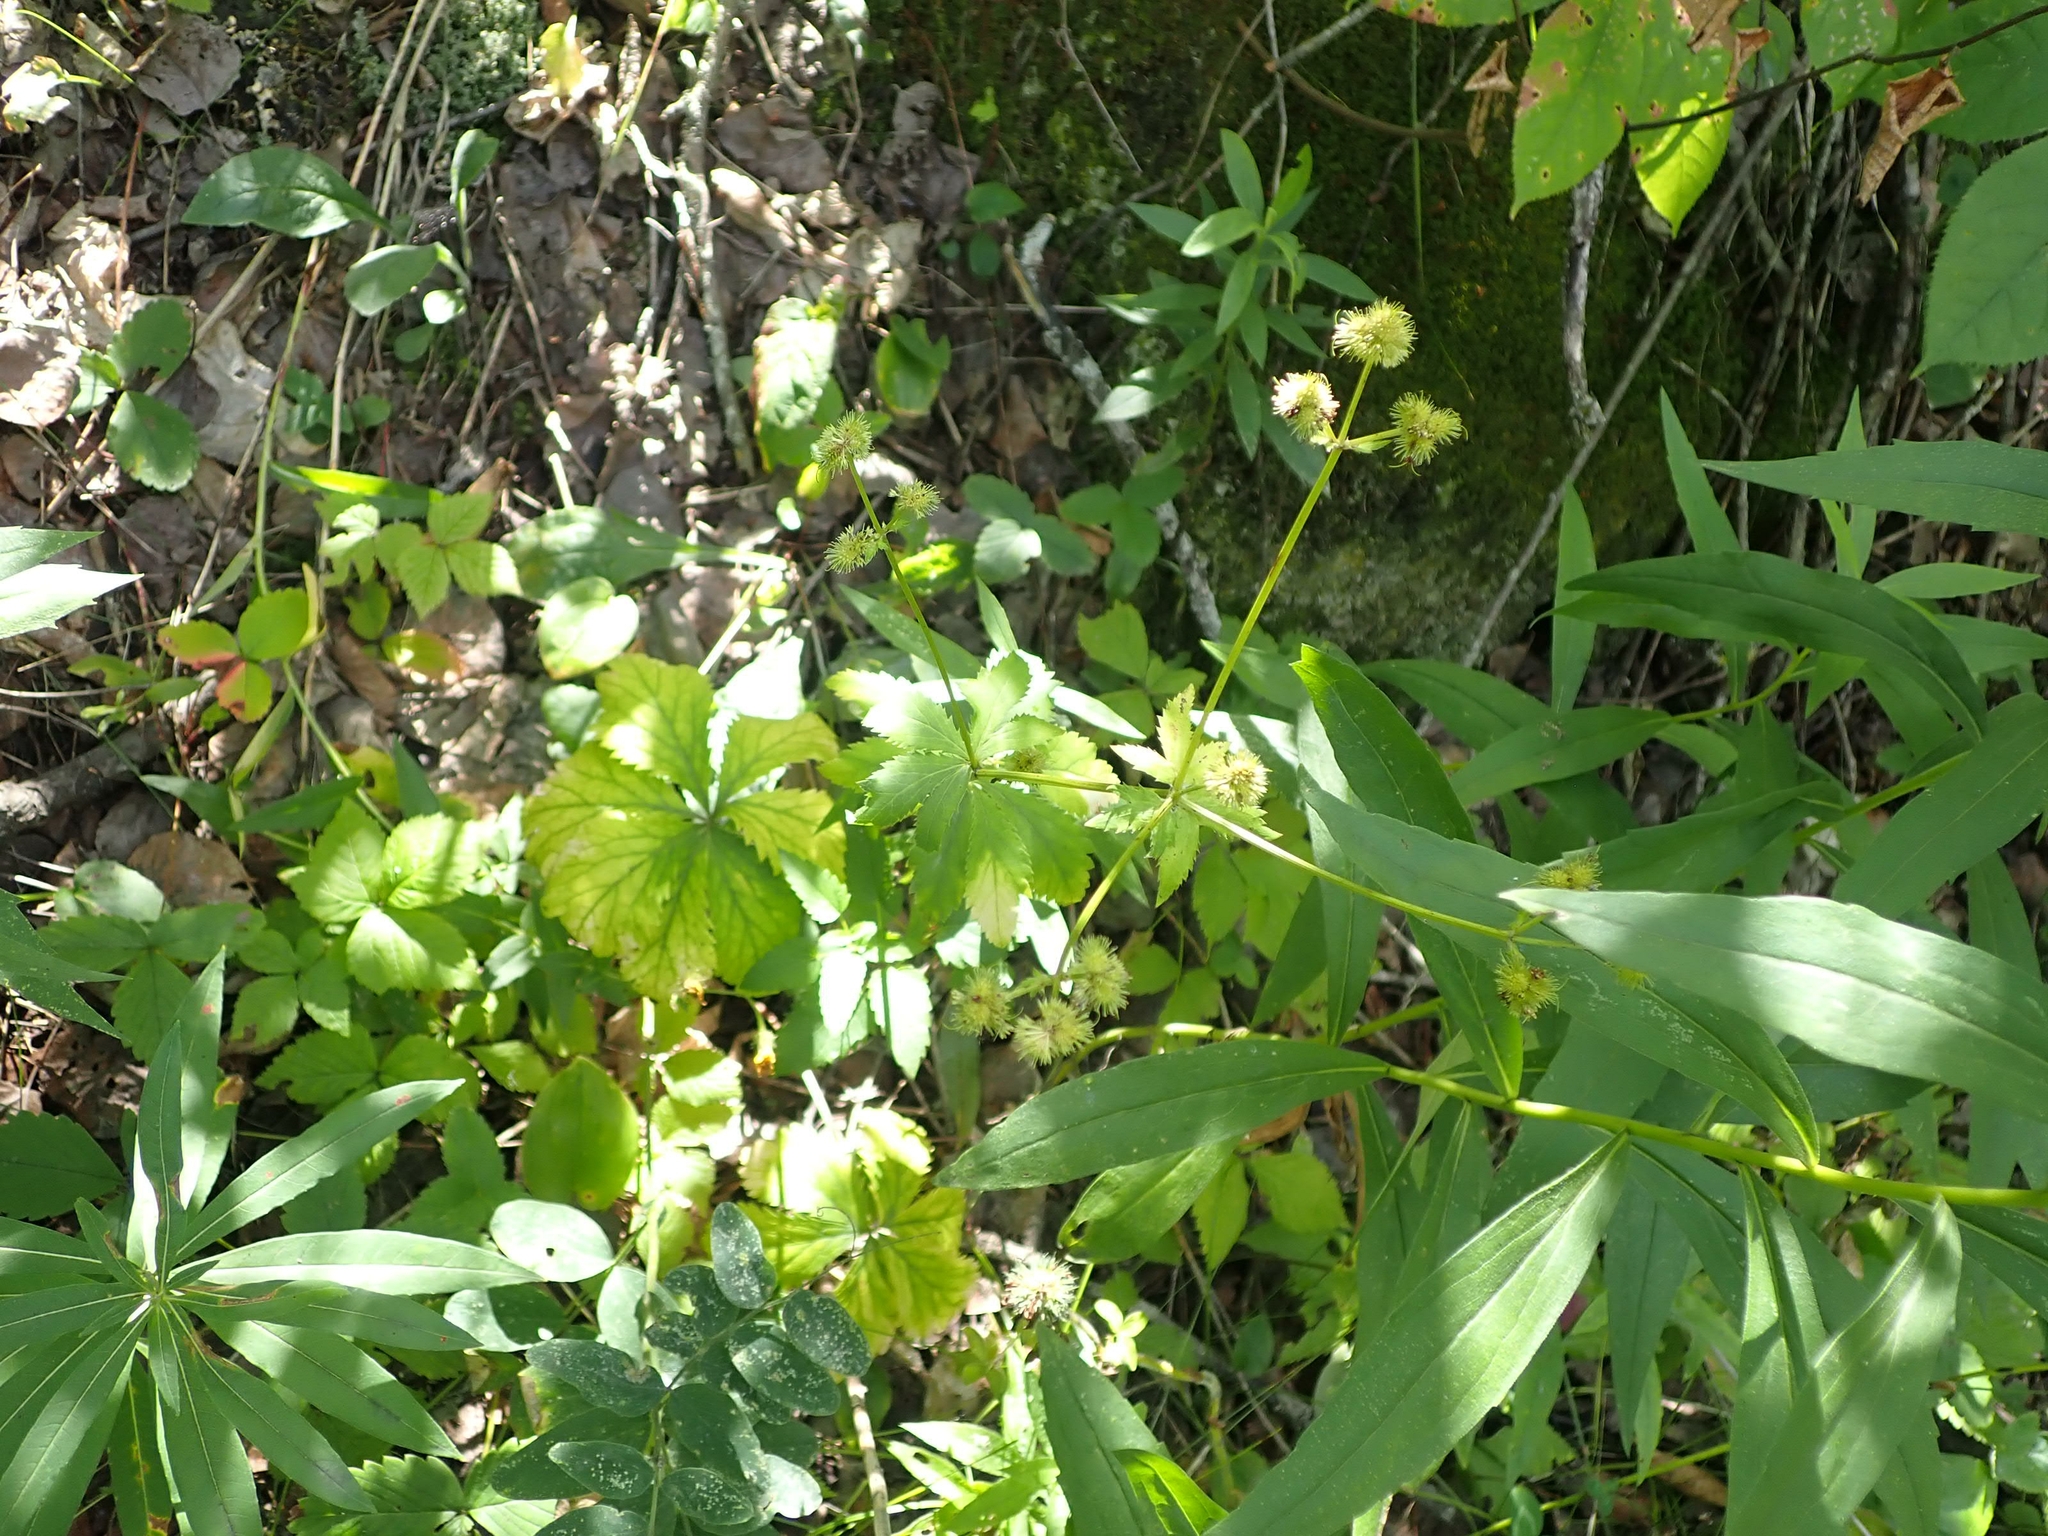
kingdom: Plantae
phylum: Tracheophyta
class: Magnoliopsida
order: Apiales
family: Apiaceae
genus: Sanicula
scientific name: Sanicula marilandica
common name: Black snakeroot
